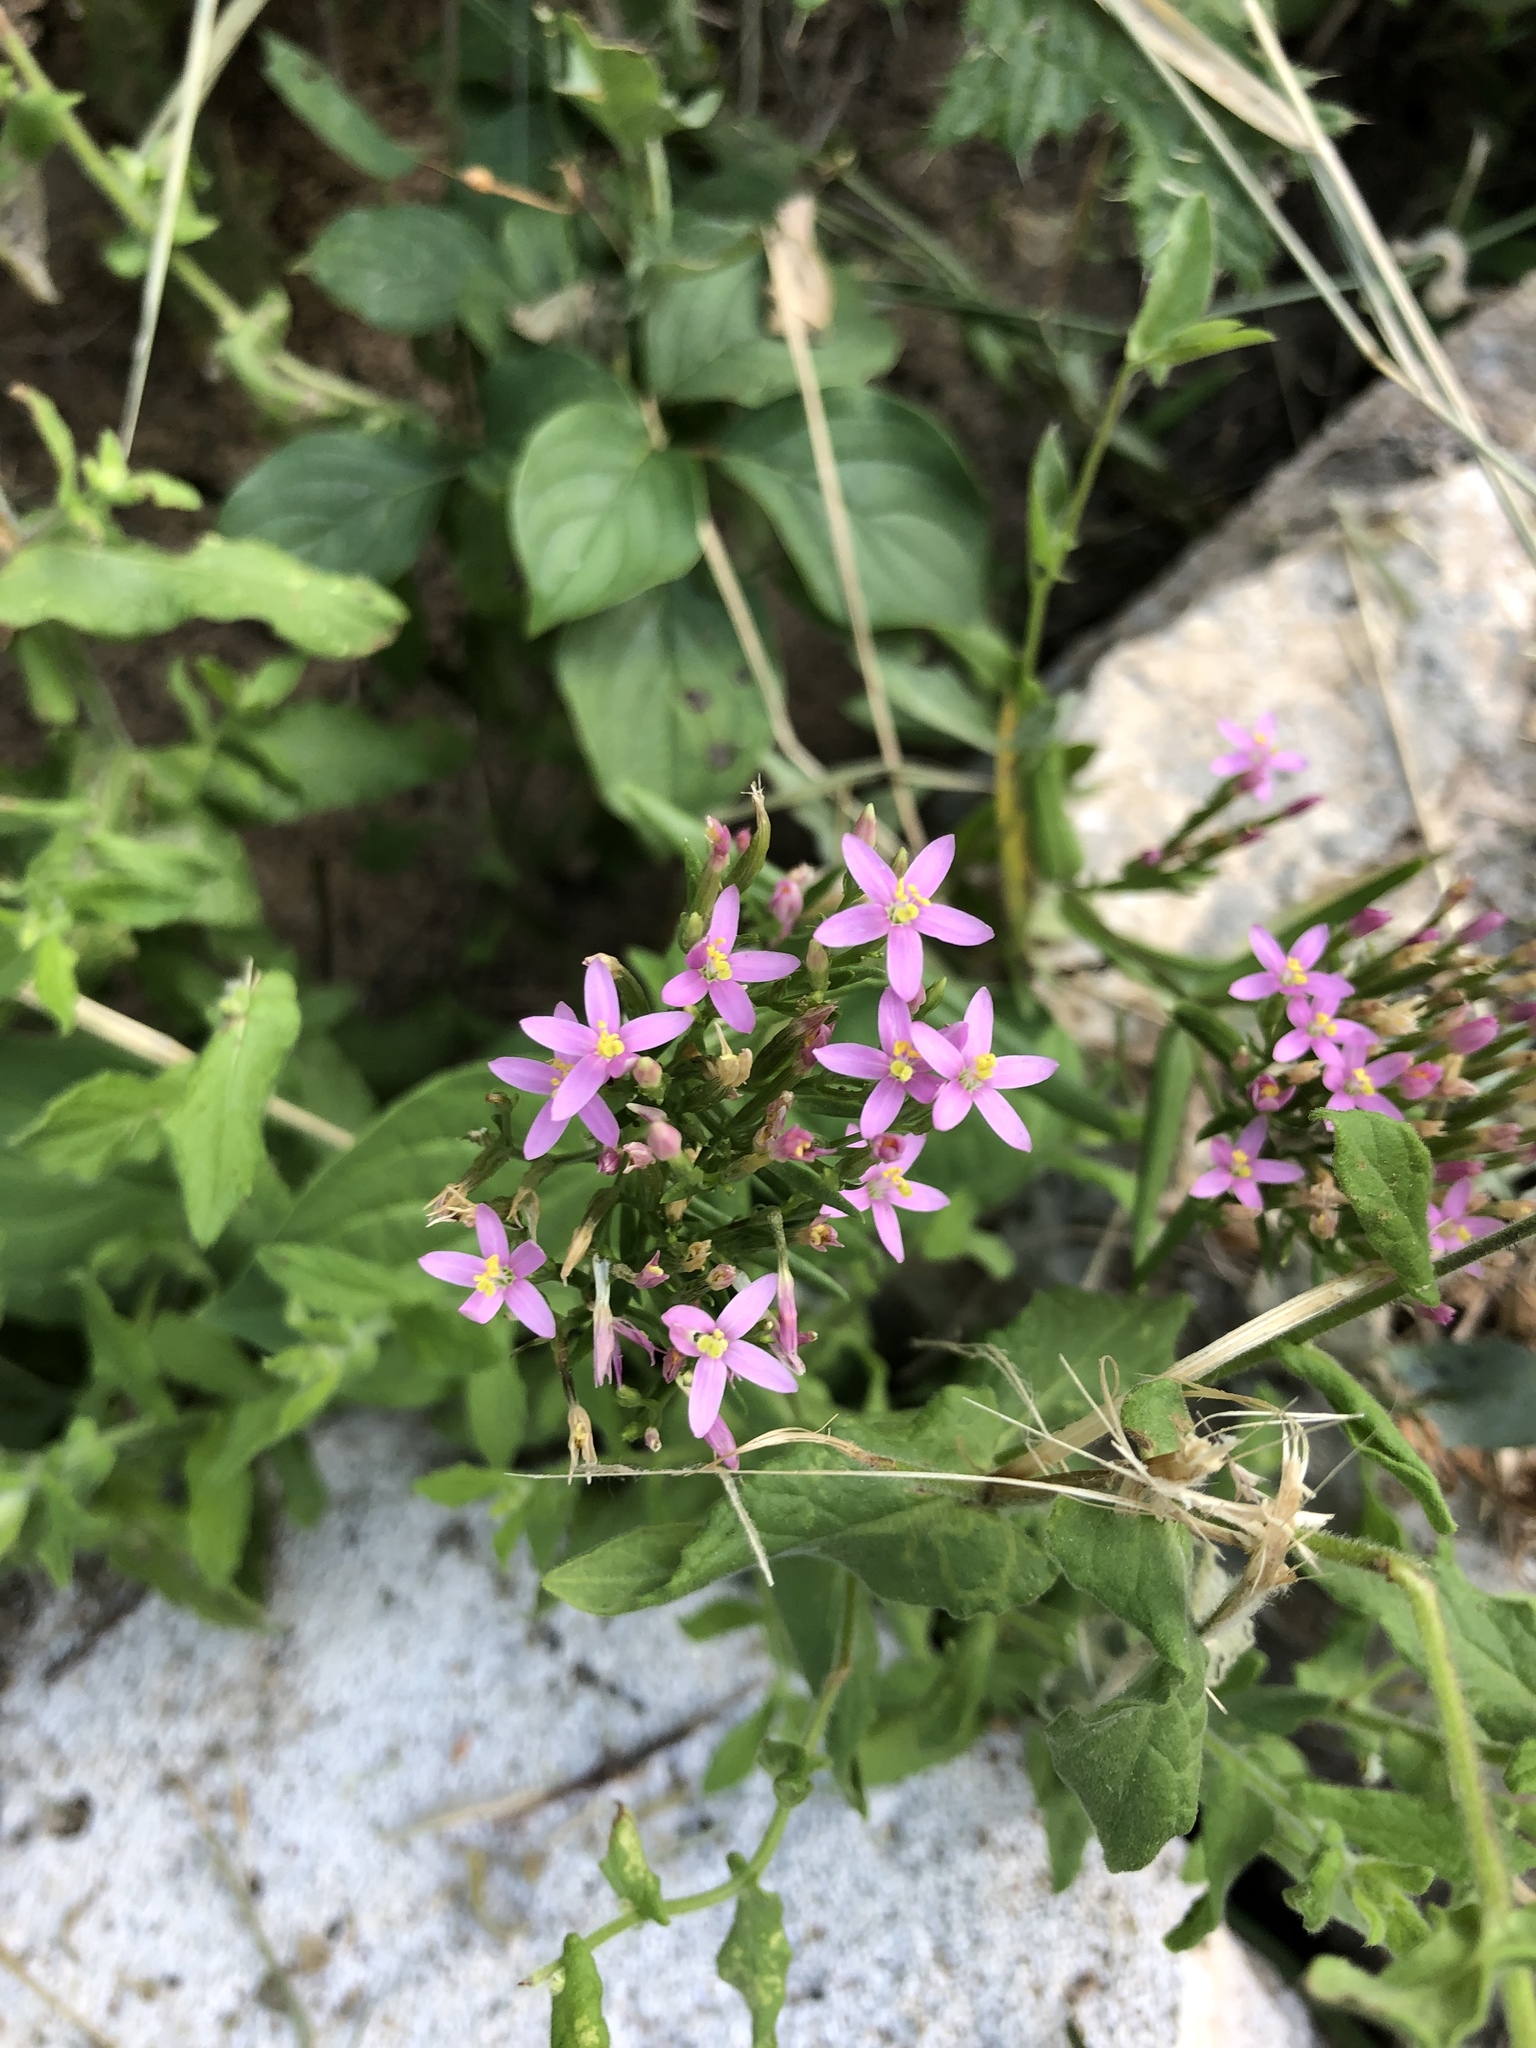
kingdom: Plantae
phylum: Tracheophyta
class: Magnoliopsida
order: Gentianales
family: Gentianaceae
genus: Centaurium
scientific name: Centaurium erythraea
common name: Common centaury
